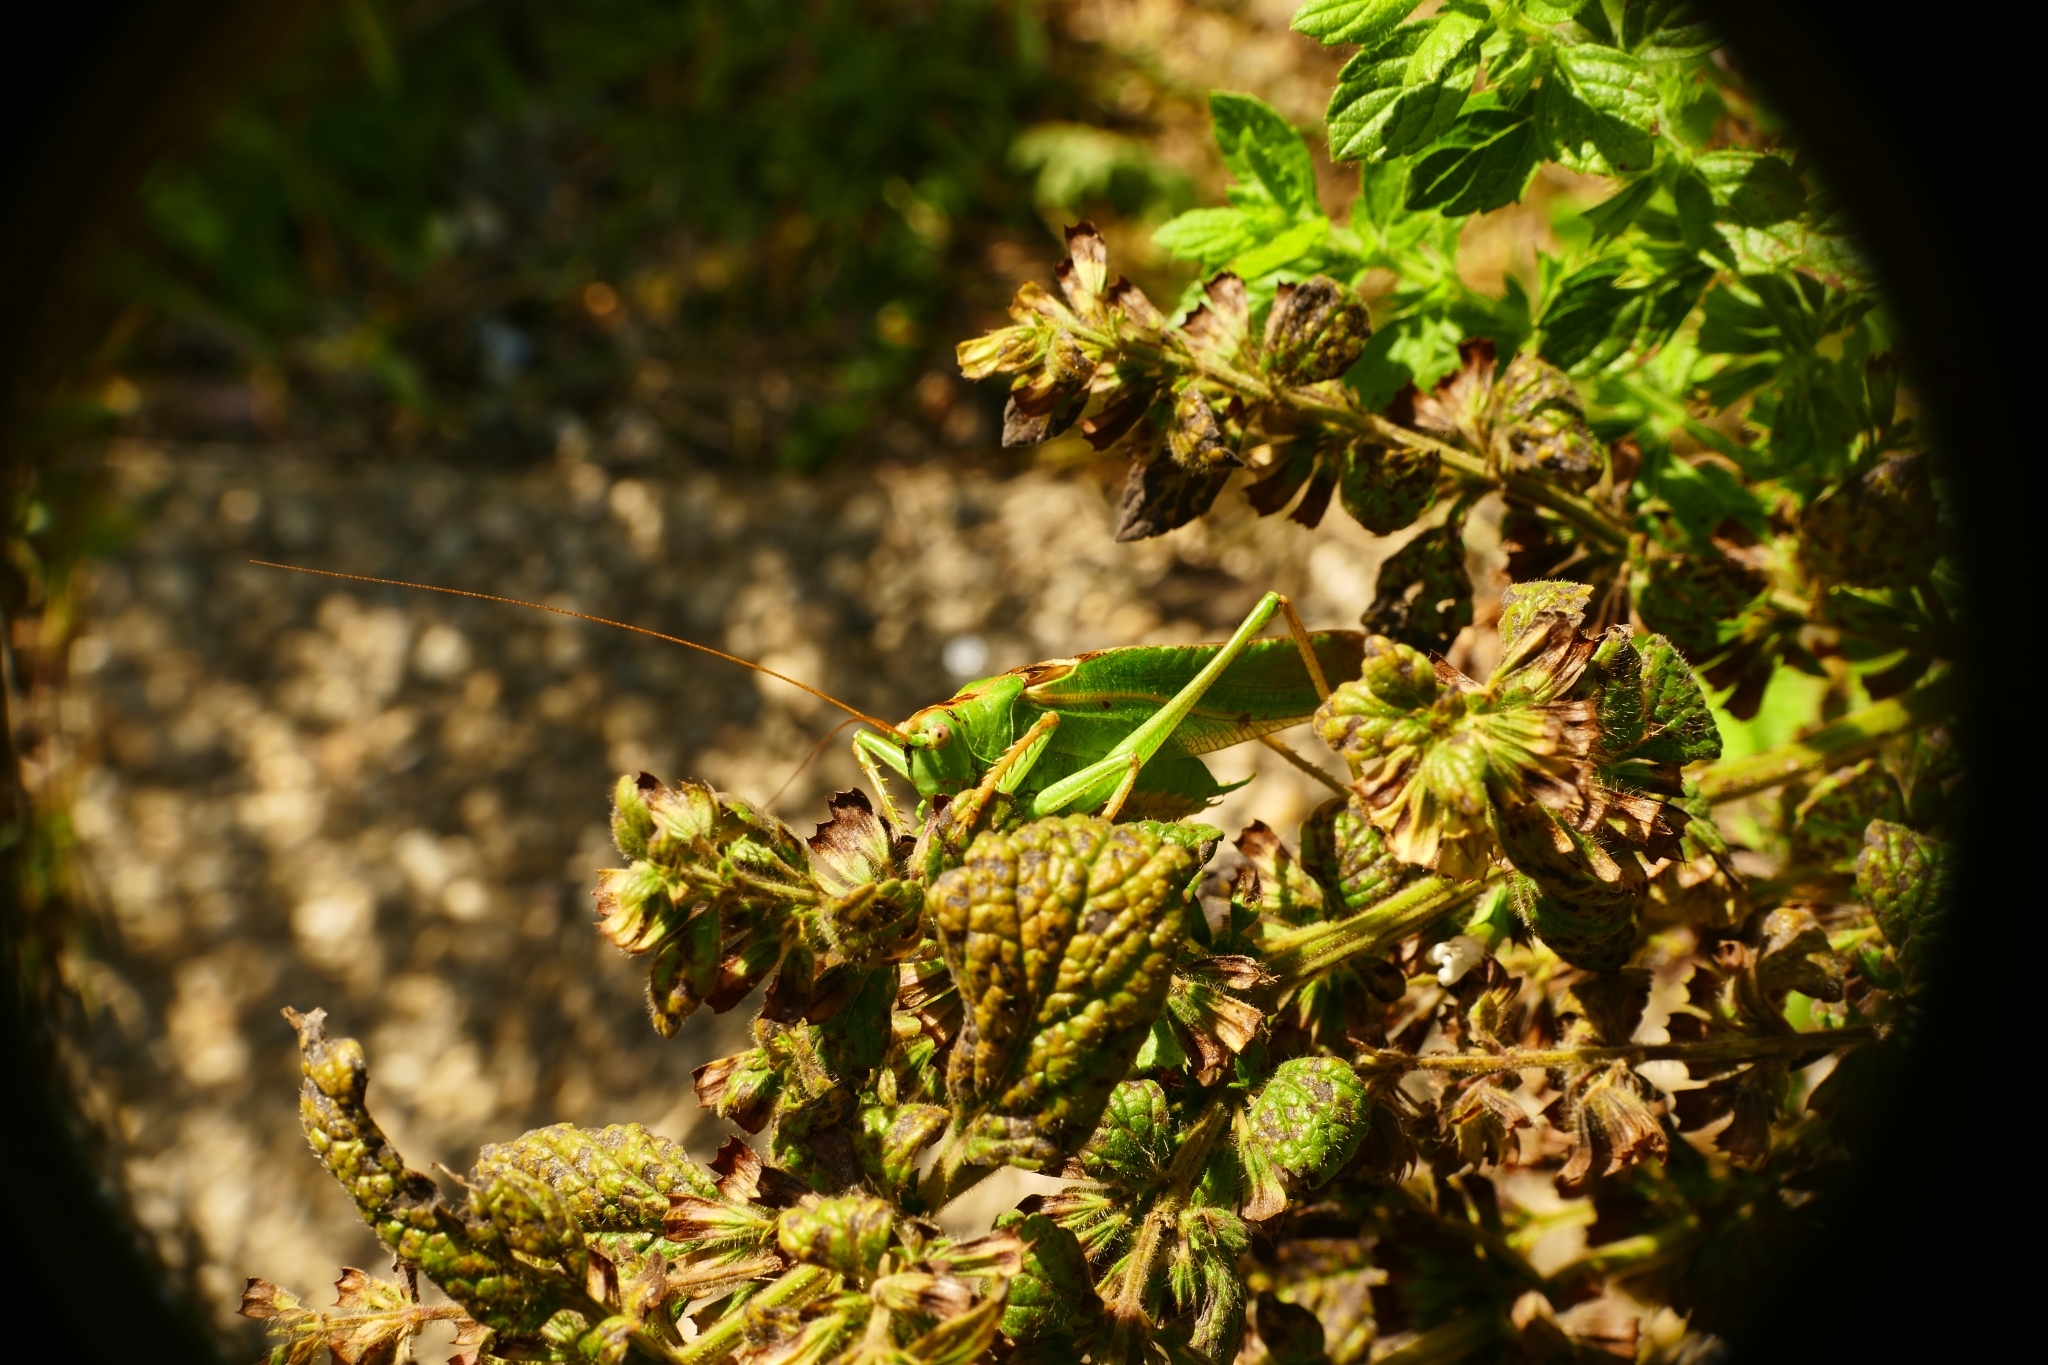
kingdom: Animalia
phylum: Arthropoda
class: Insecta
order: Orthoptera
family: Tettigoniidae
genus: Tettigonia
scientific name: Tettigonia viridissima
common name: Great green bush-cricket
